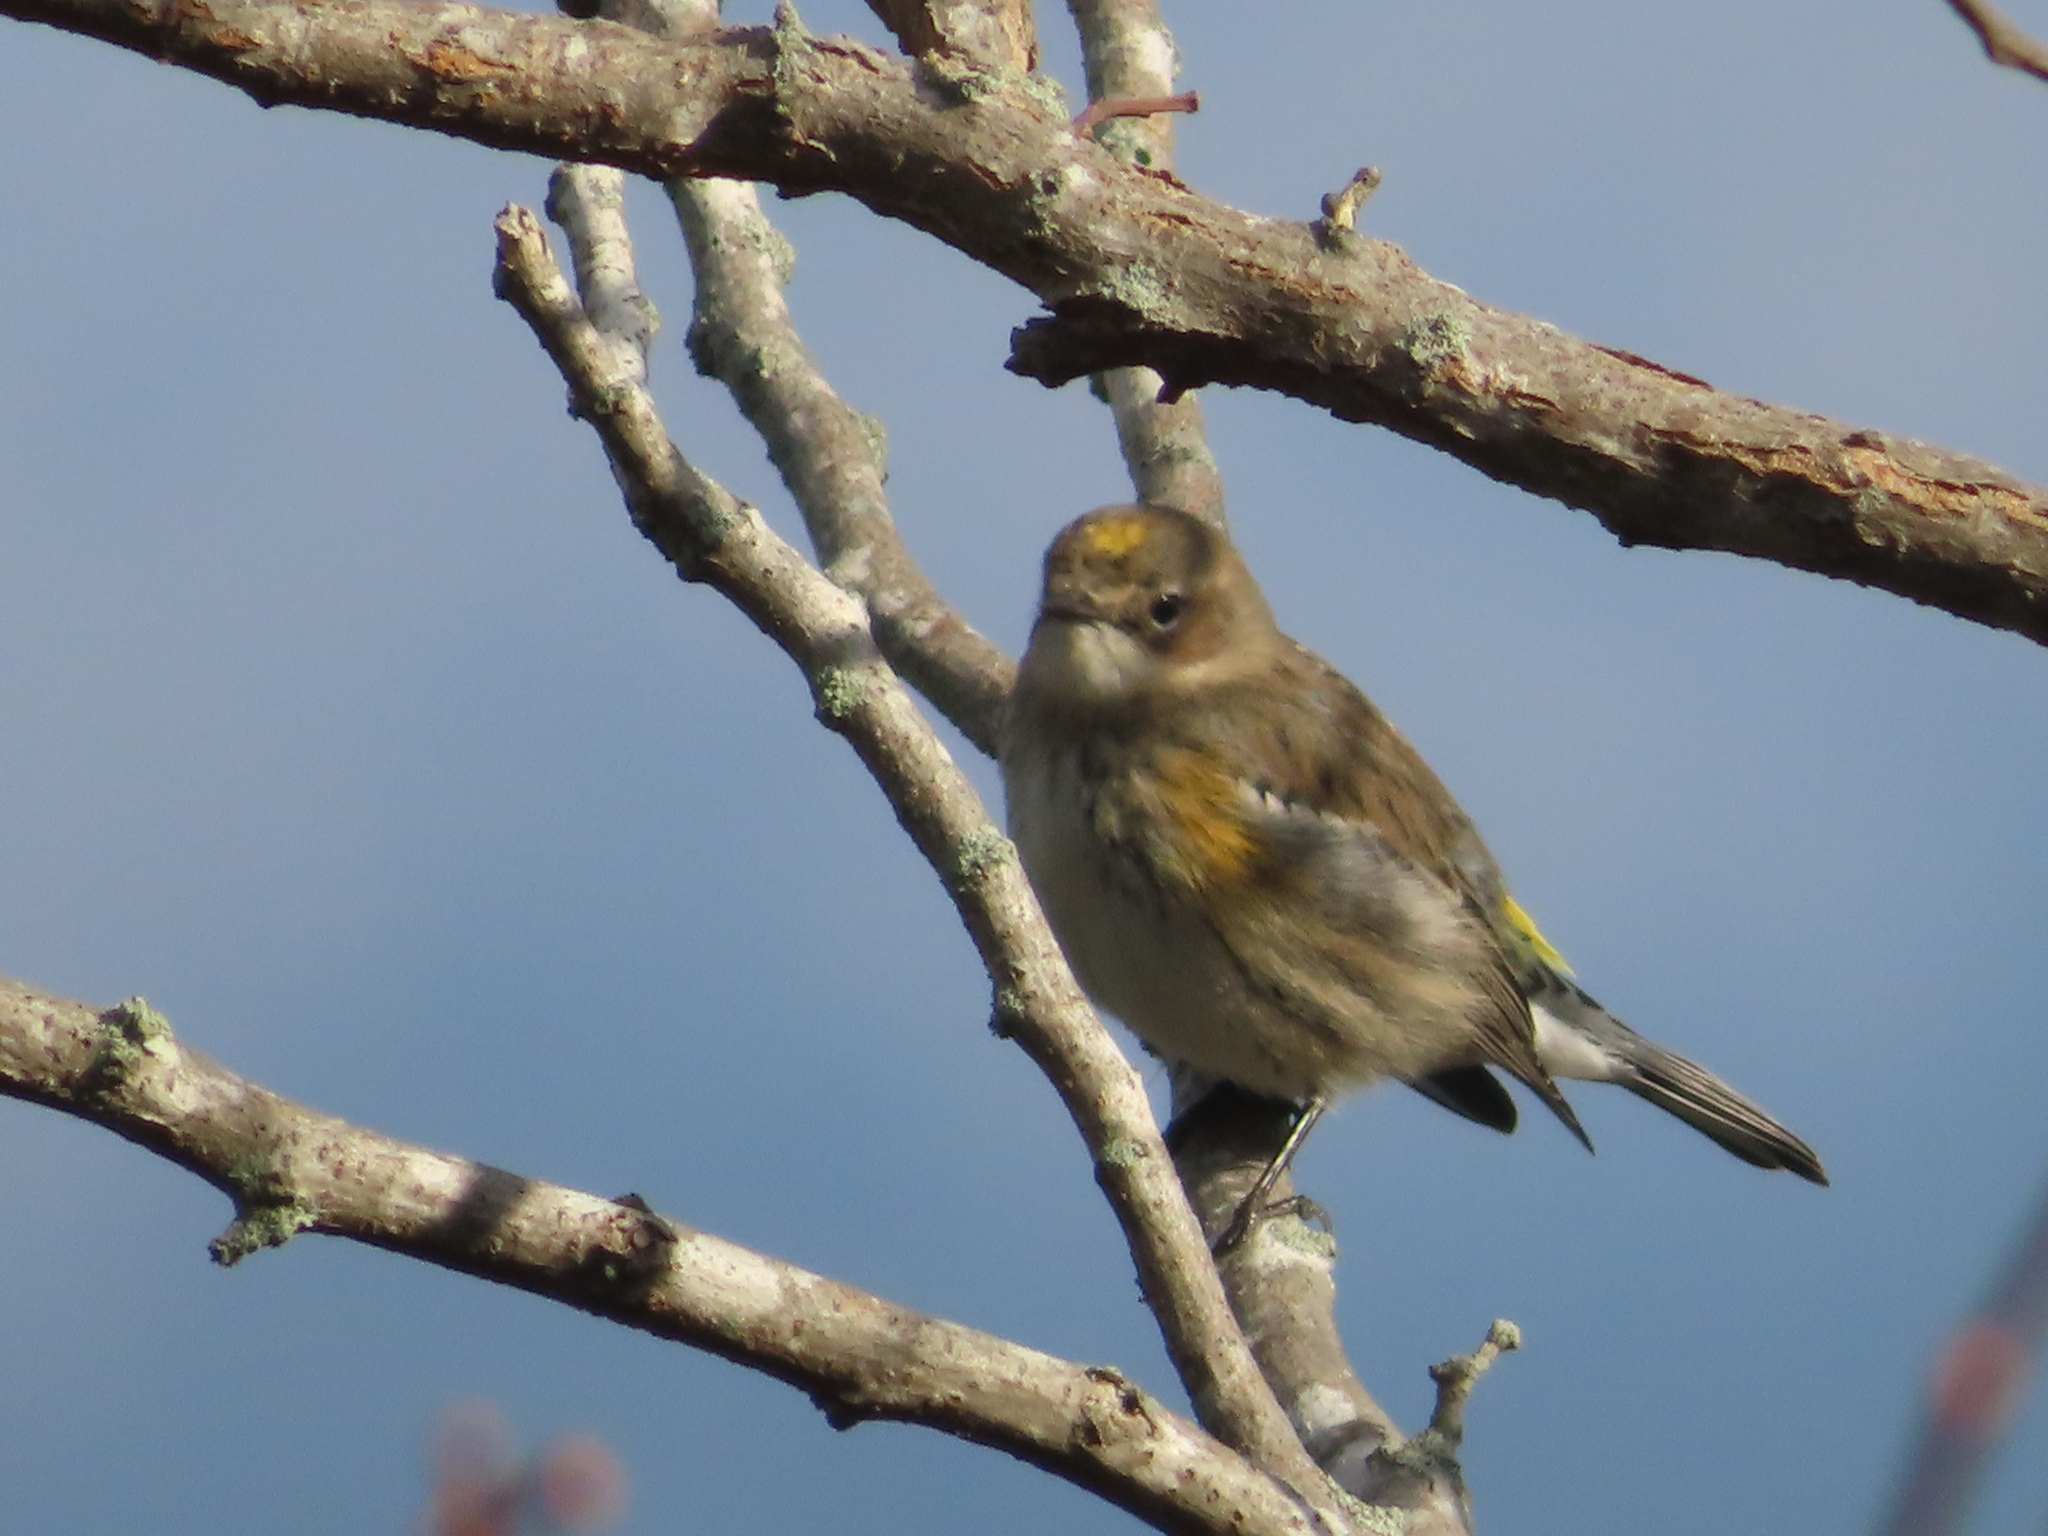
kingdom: Animalia
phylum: Chordata
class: Aves
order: Passeriformes
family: Parulidae
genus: Setophaga
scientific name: Setophaga coronata
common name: Myrtle warbler
